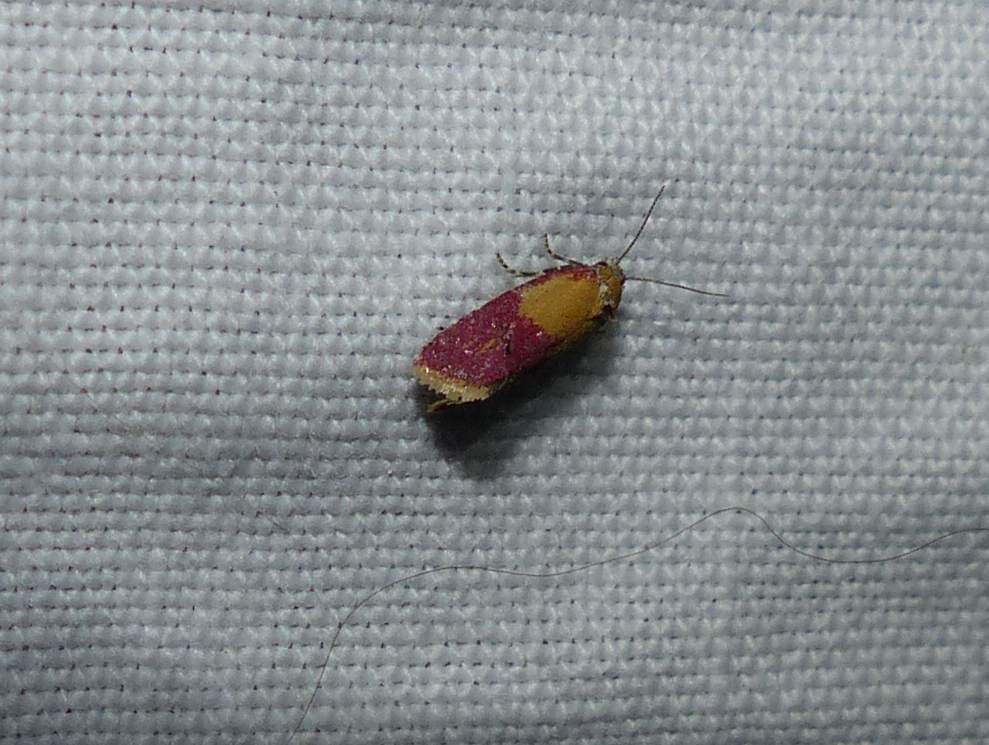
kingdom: Animalia
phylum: Arthropoda
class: Insecta
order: Lepidoptera
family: Tortricidae
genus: Conchylis
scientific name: Conchylis oenotherana
